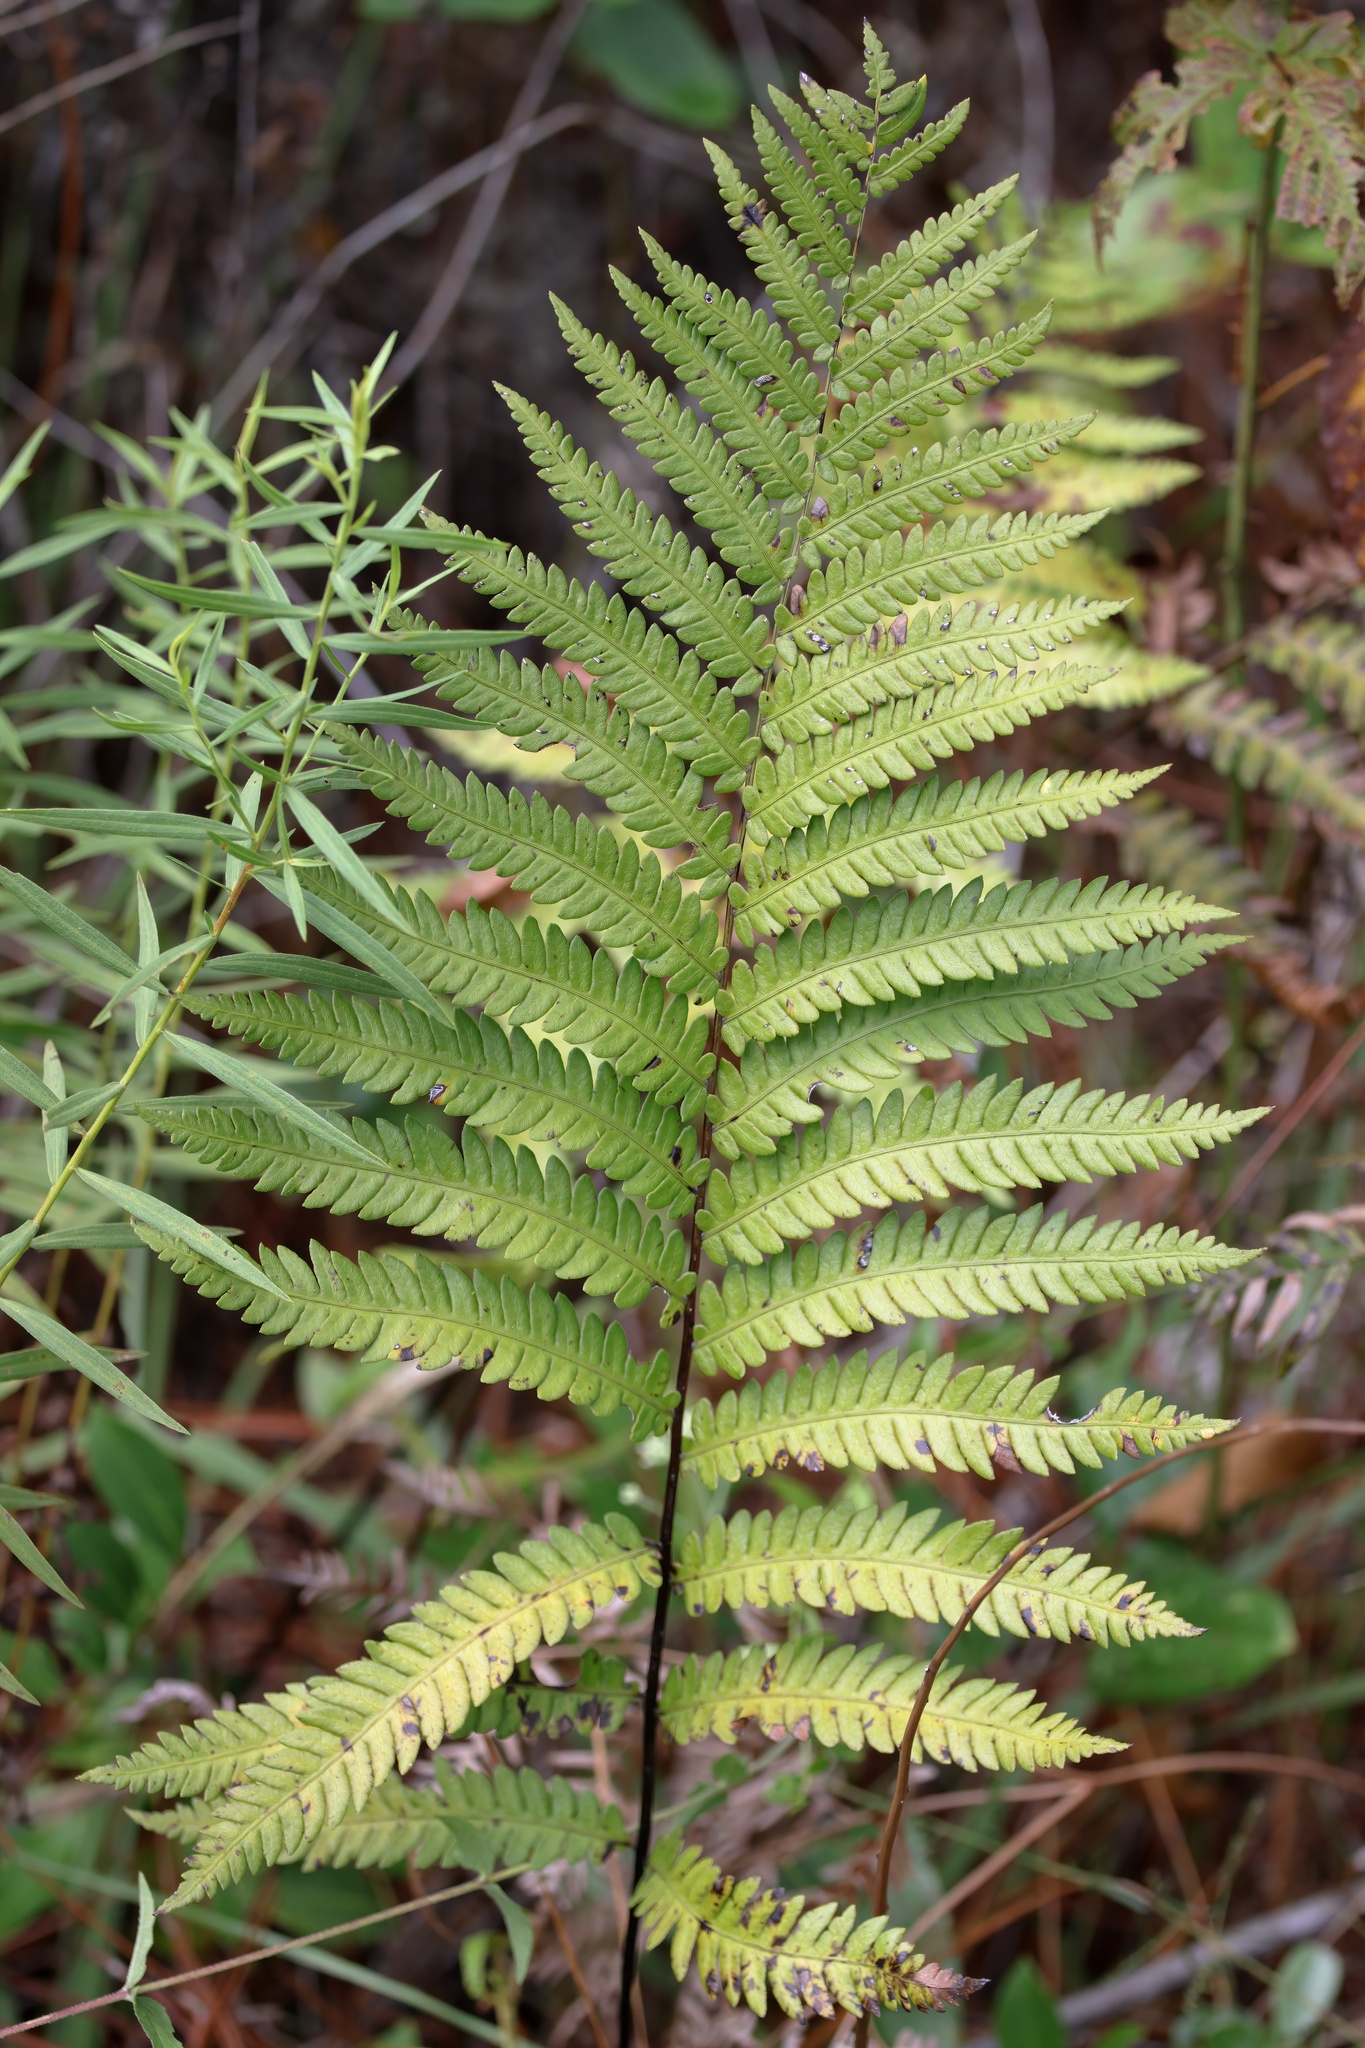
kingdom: Plantae
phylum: Tracheophyta
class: Polypodiopsida
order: Polypodiales
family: Blechnaceae
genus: Anchistea
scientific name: Anchistea virginica
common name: Virginia chain fern
